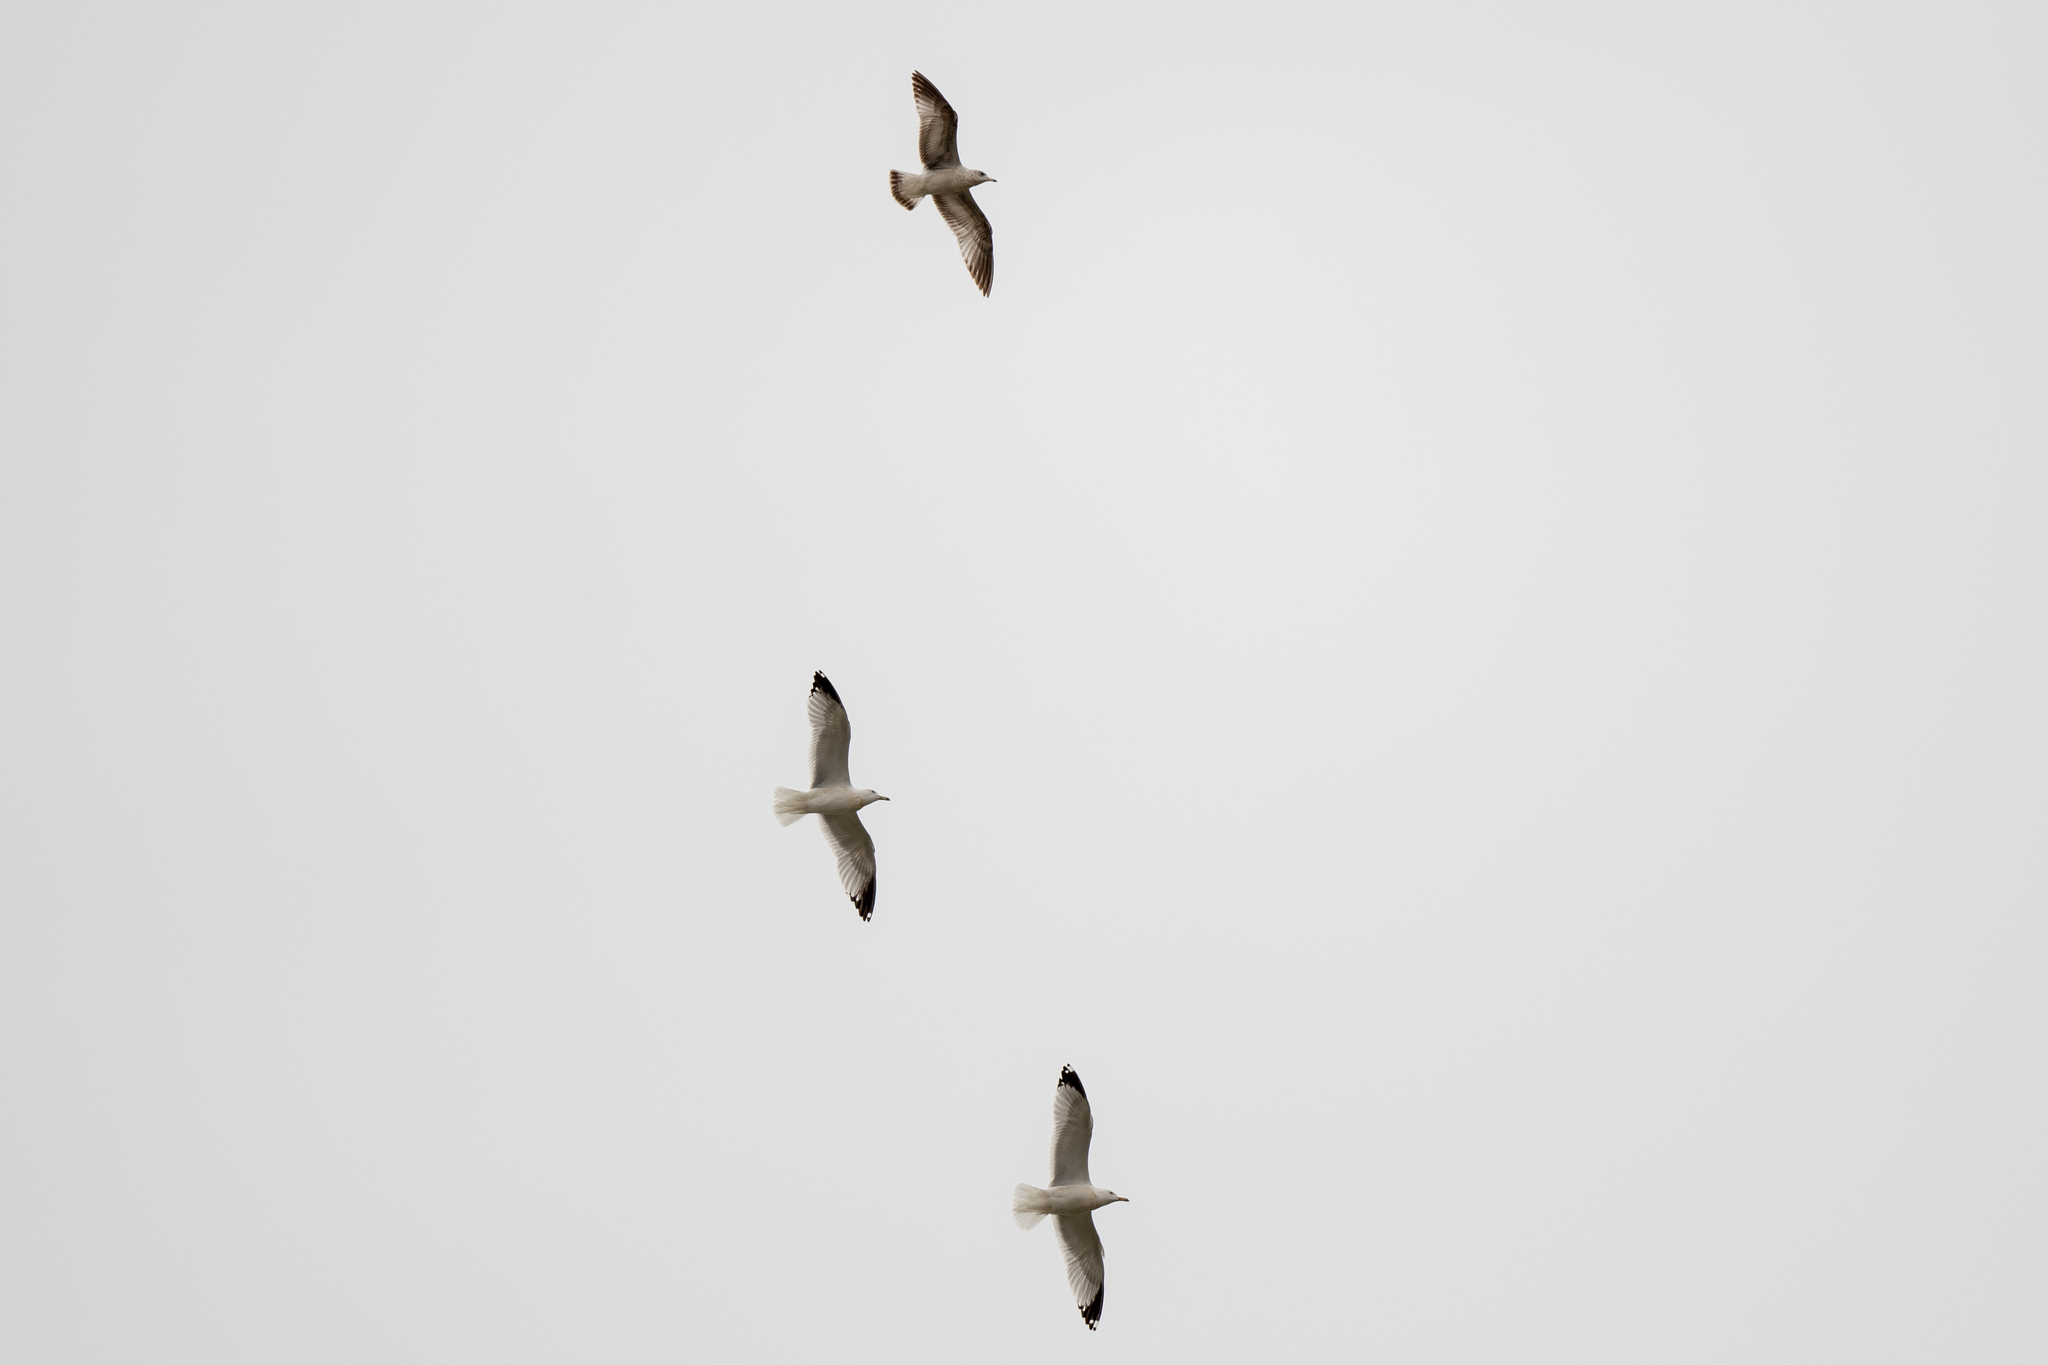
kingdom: Animalia
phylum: Chordata
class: Aves
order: Charadriiformes
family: Laridae
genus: Larus
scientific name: Larus delawarensis
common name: Ring-billed gull
